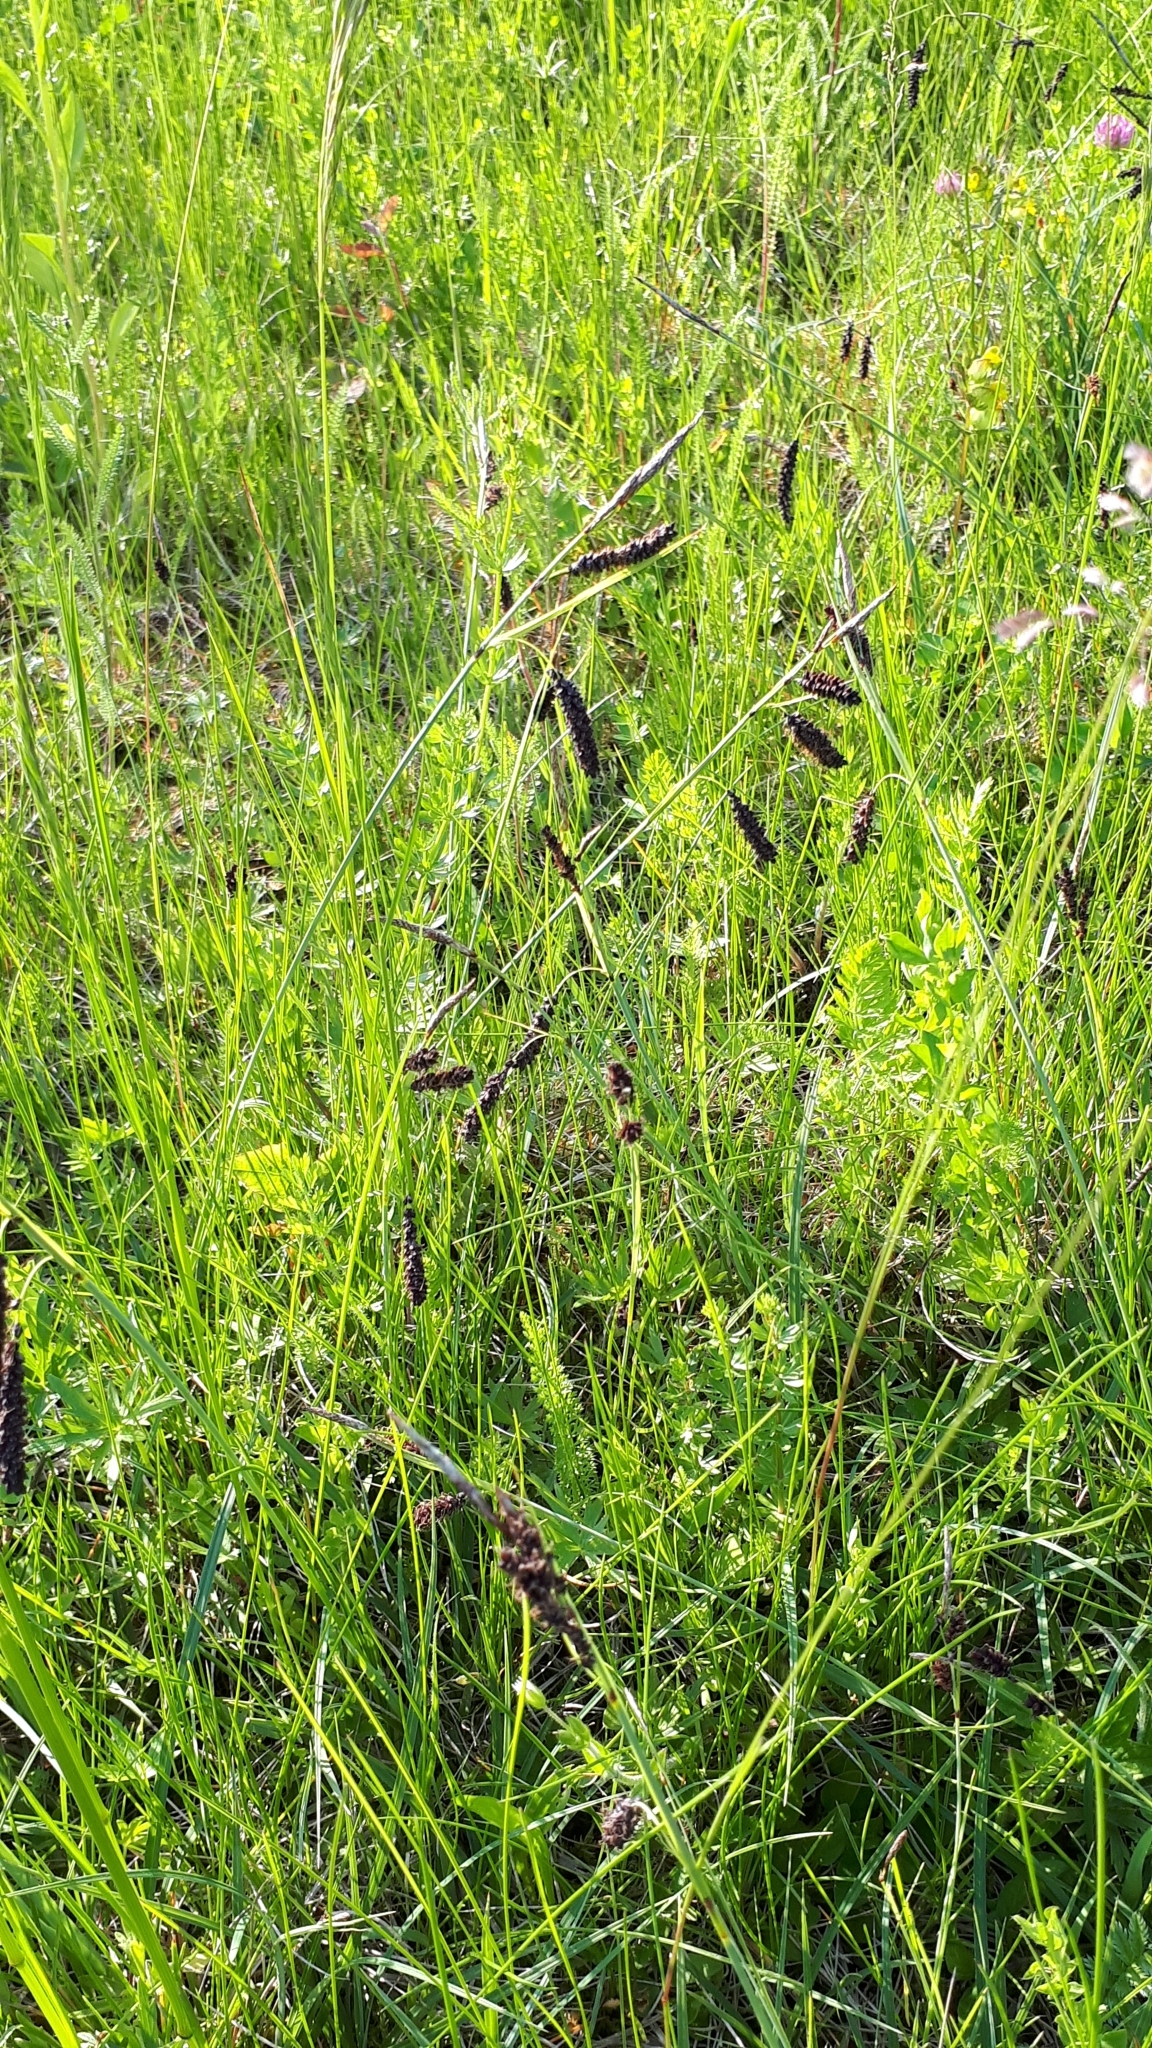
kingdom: Plantae
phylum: Tracheophyta
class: Liliopsida
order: Poales
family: Cyperaceae
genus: Carex
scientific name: Carex flacca
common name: Glaucous sedge
